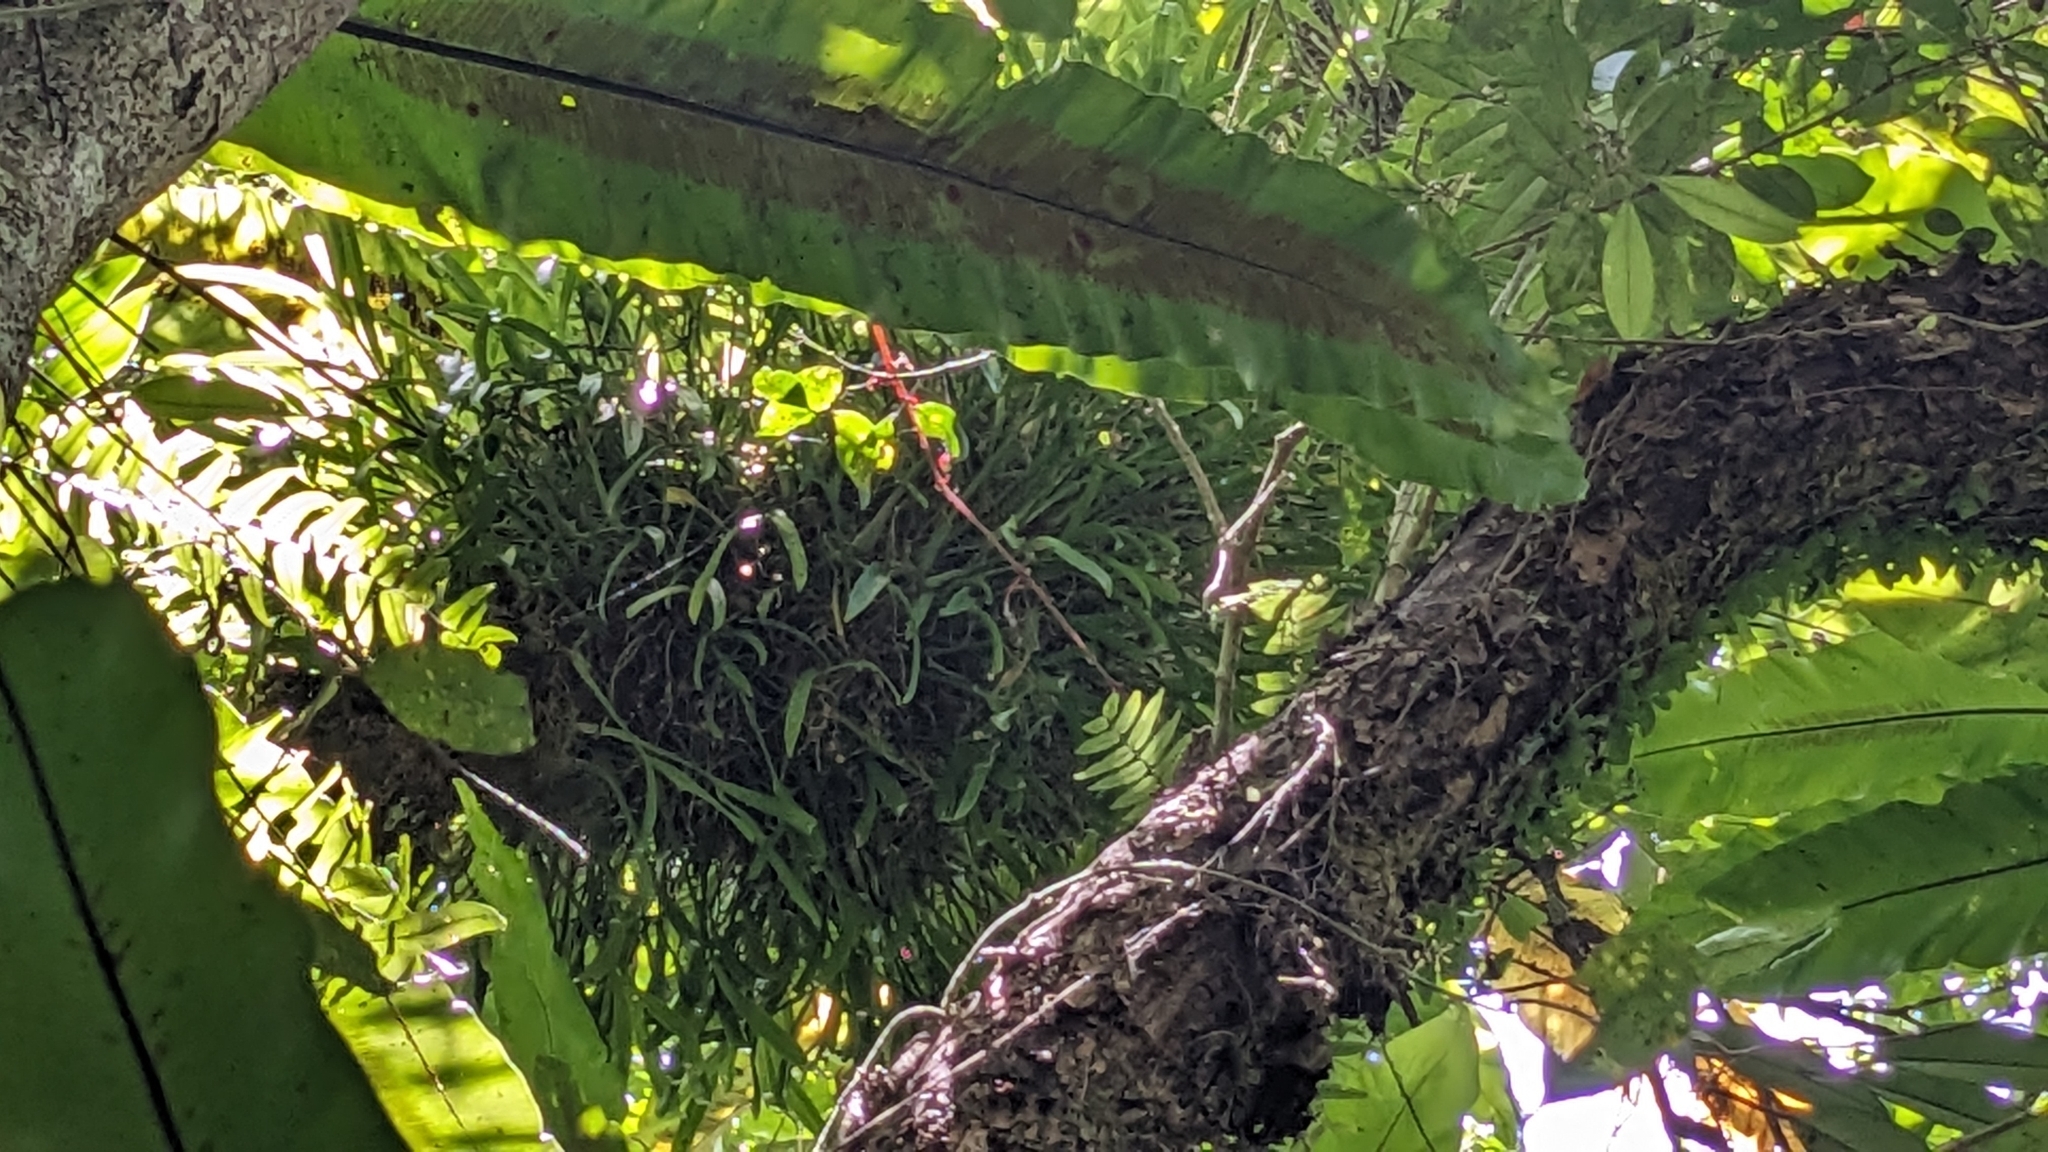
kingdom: Plantae
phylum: Tracheophyta
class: Liliopsida
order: Asparagales
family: Orchidaceae
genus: Liparis
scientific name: Liparis condylobulbon
